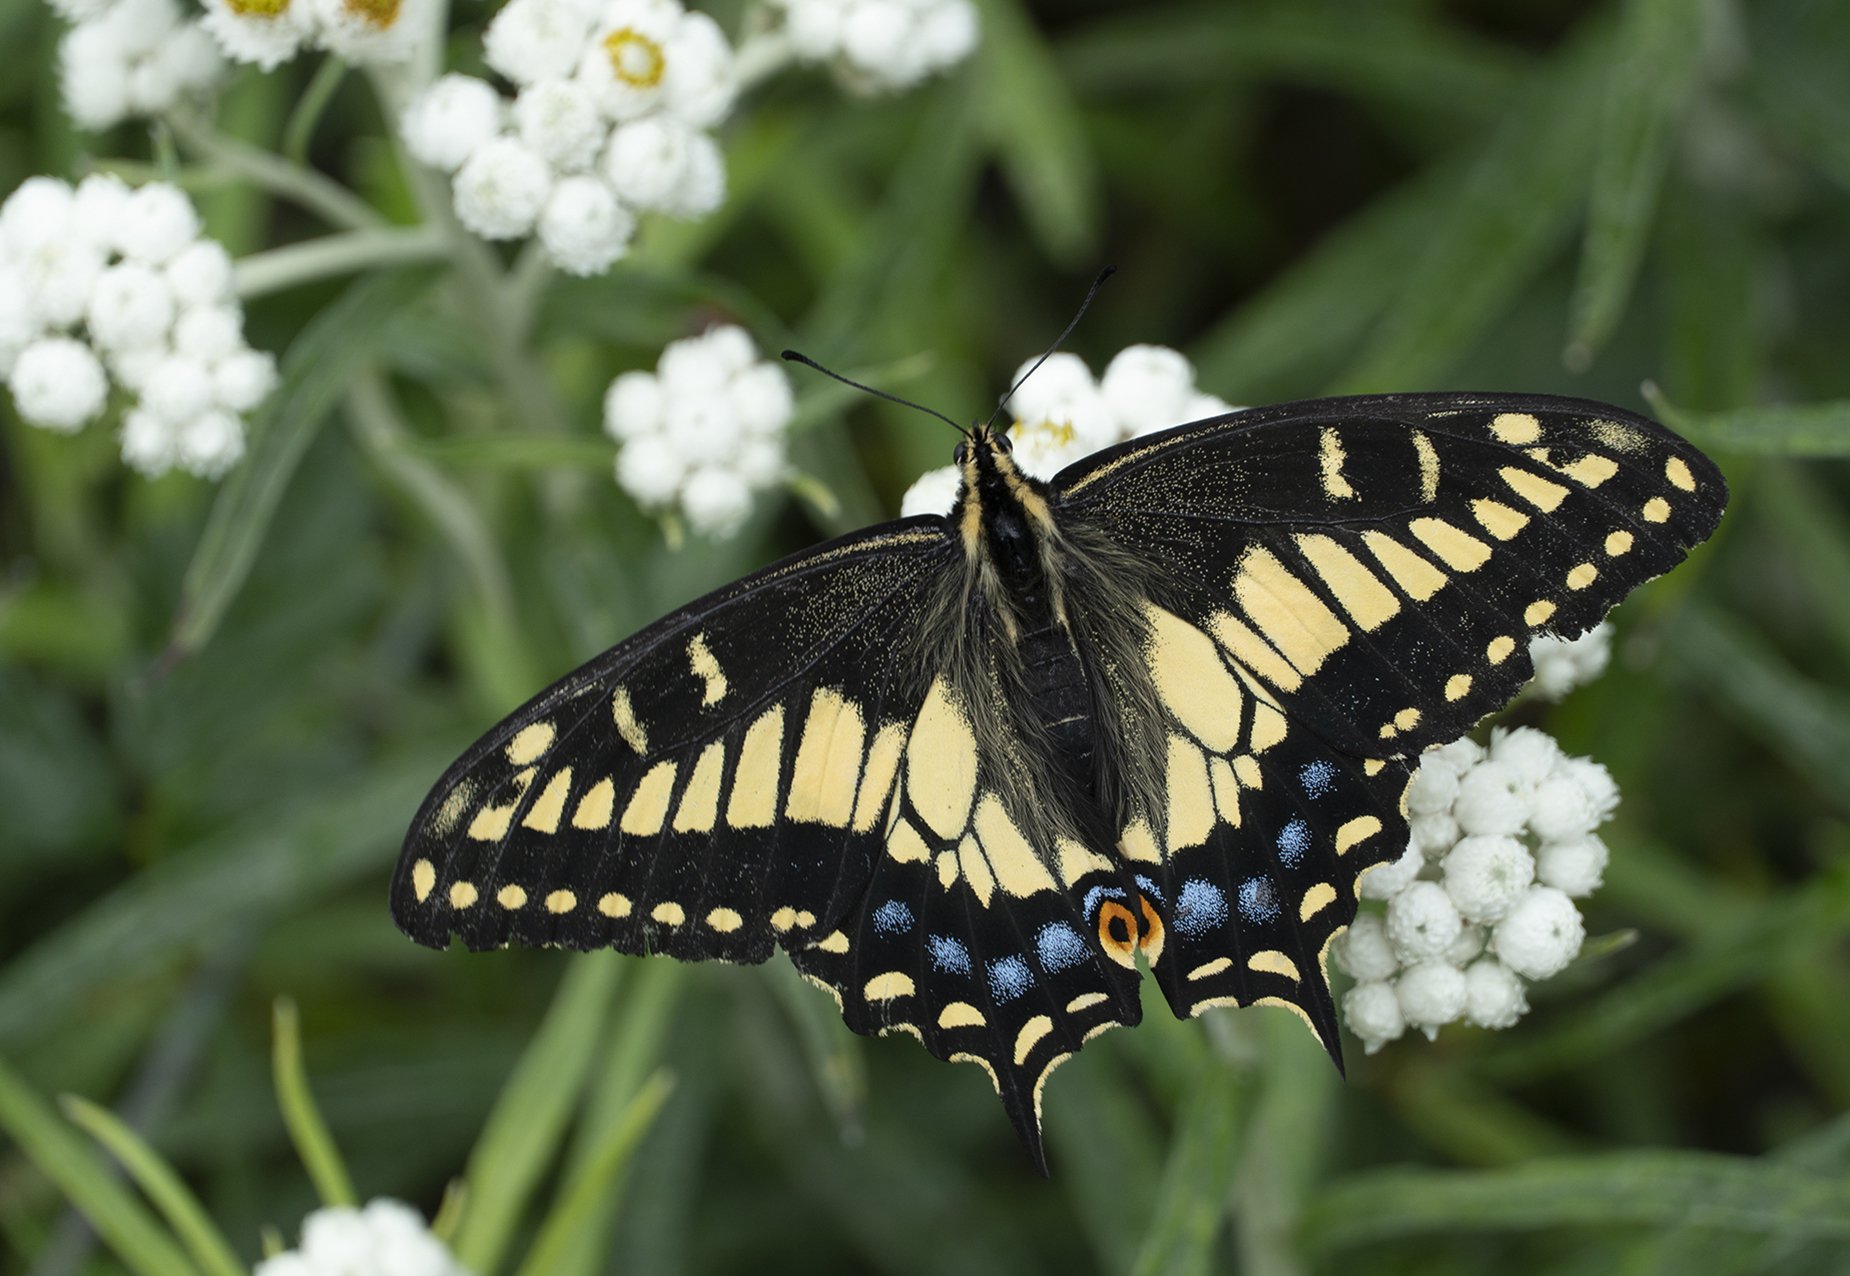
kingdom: Animalia
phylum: Arthropoda
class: Insecta
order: Lepidoptera
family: Papilionidae
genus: Papilio
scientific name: Papilio zelicaon
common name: Anise swallowtail
